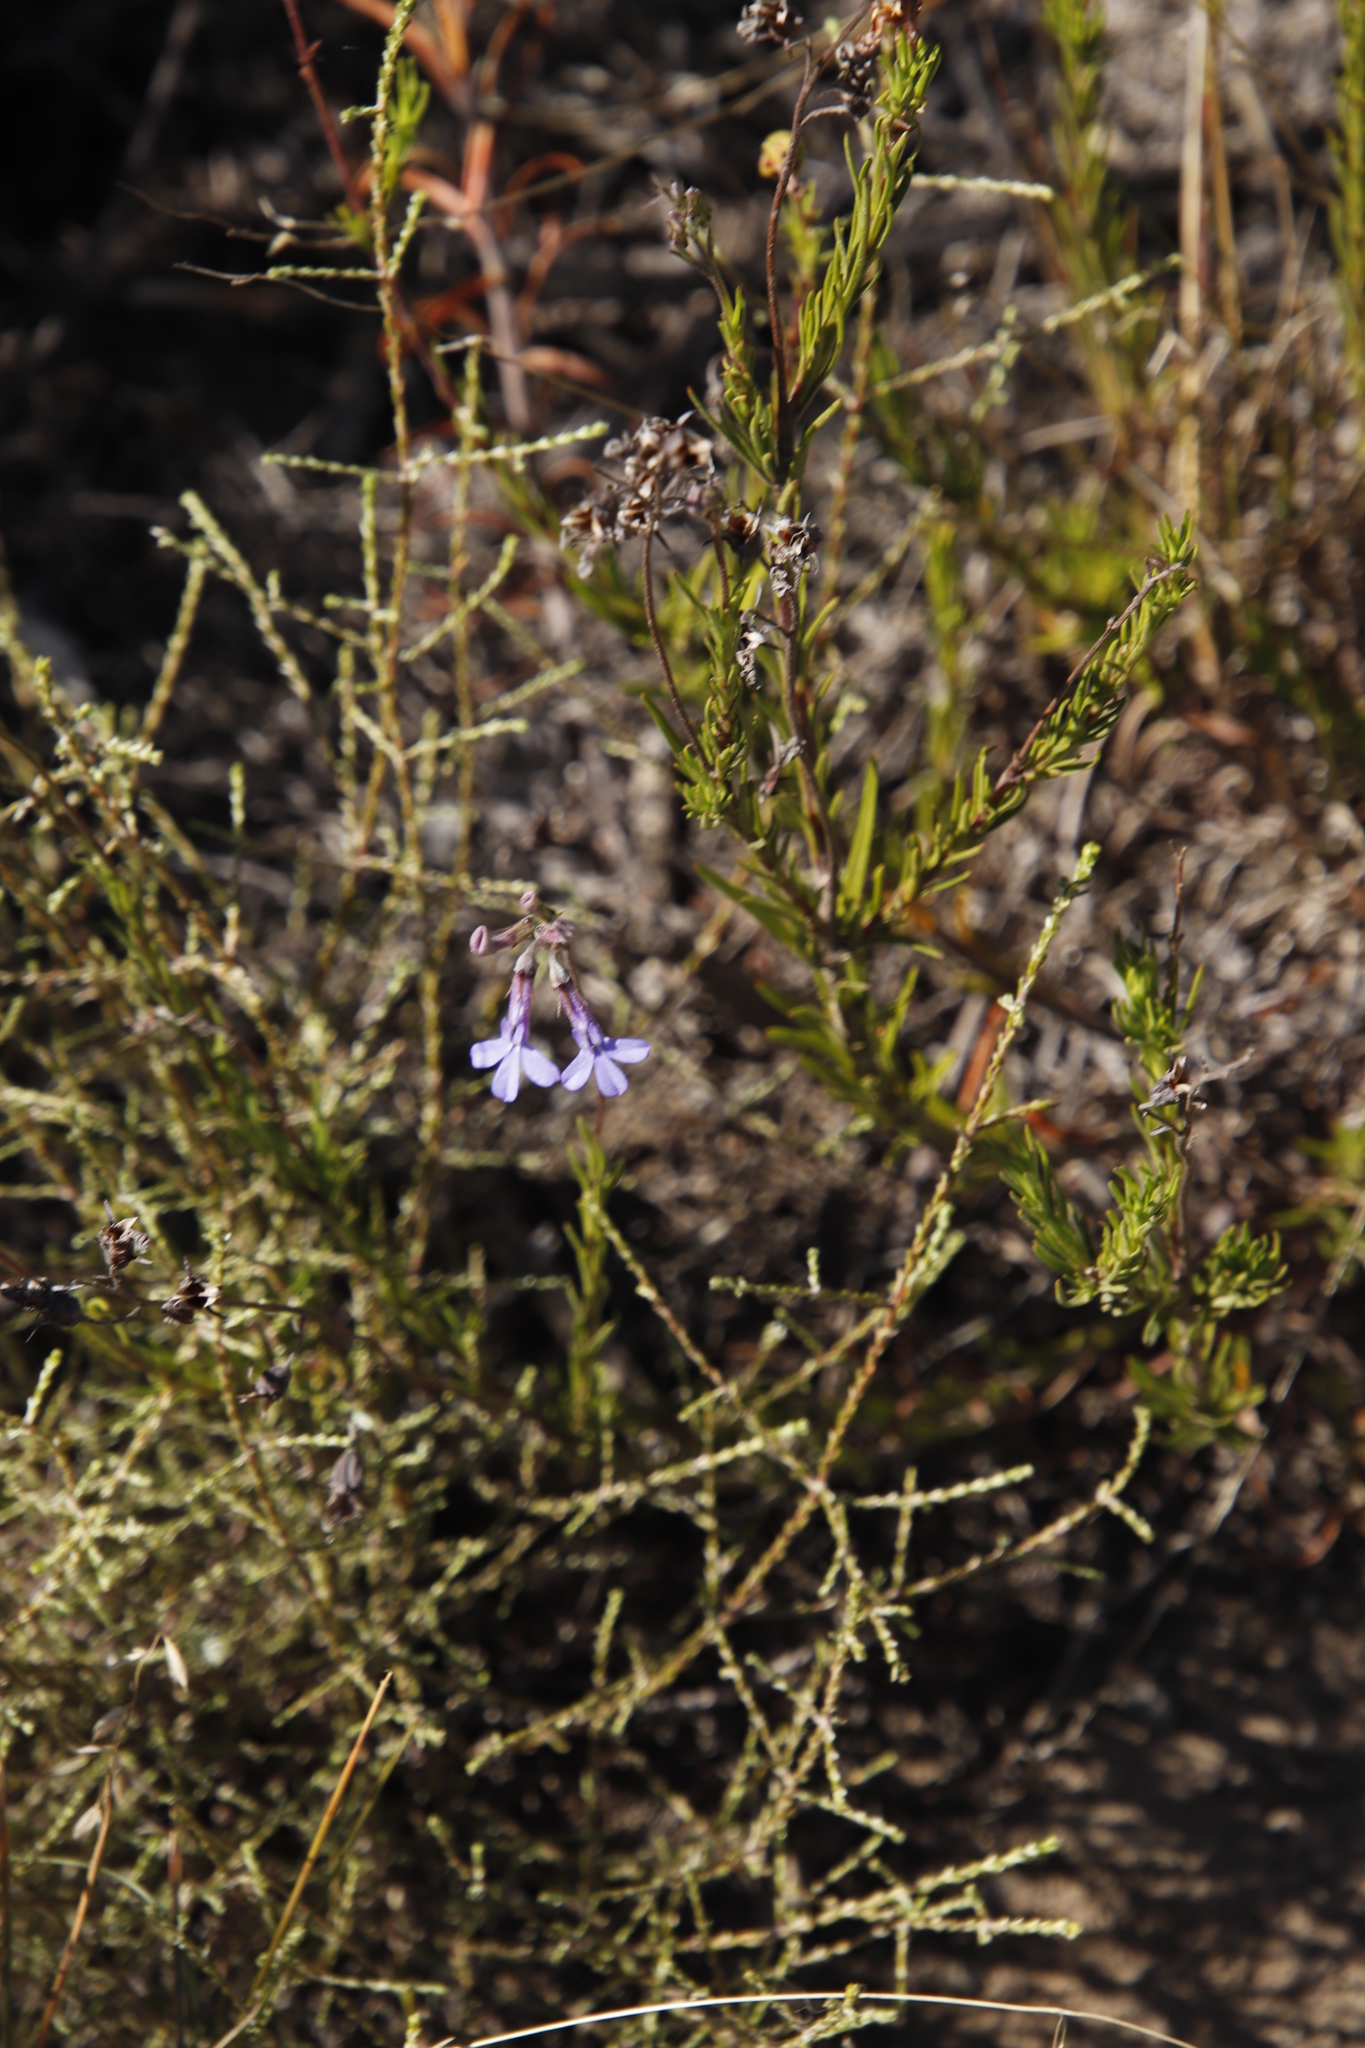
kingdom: Plantae
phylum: Tracheophyta
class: Magnoliopsida
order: Asterales
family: Campanulaceae
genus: Lobelia
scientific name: Lobelia pinifolia
